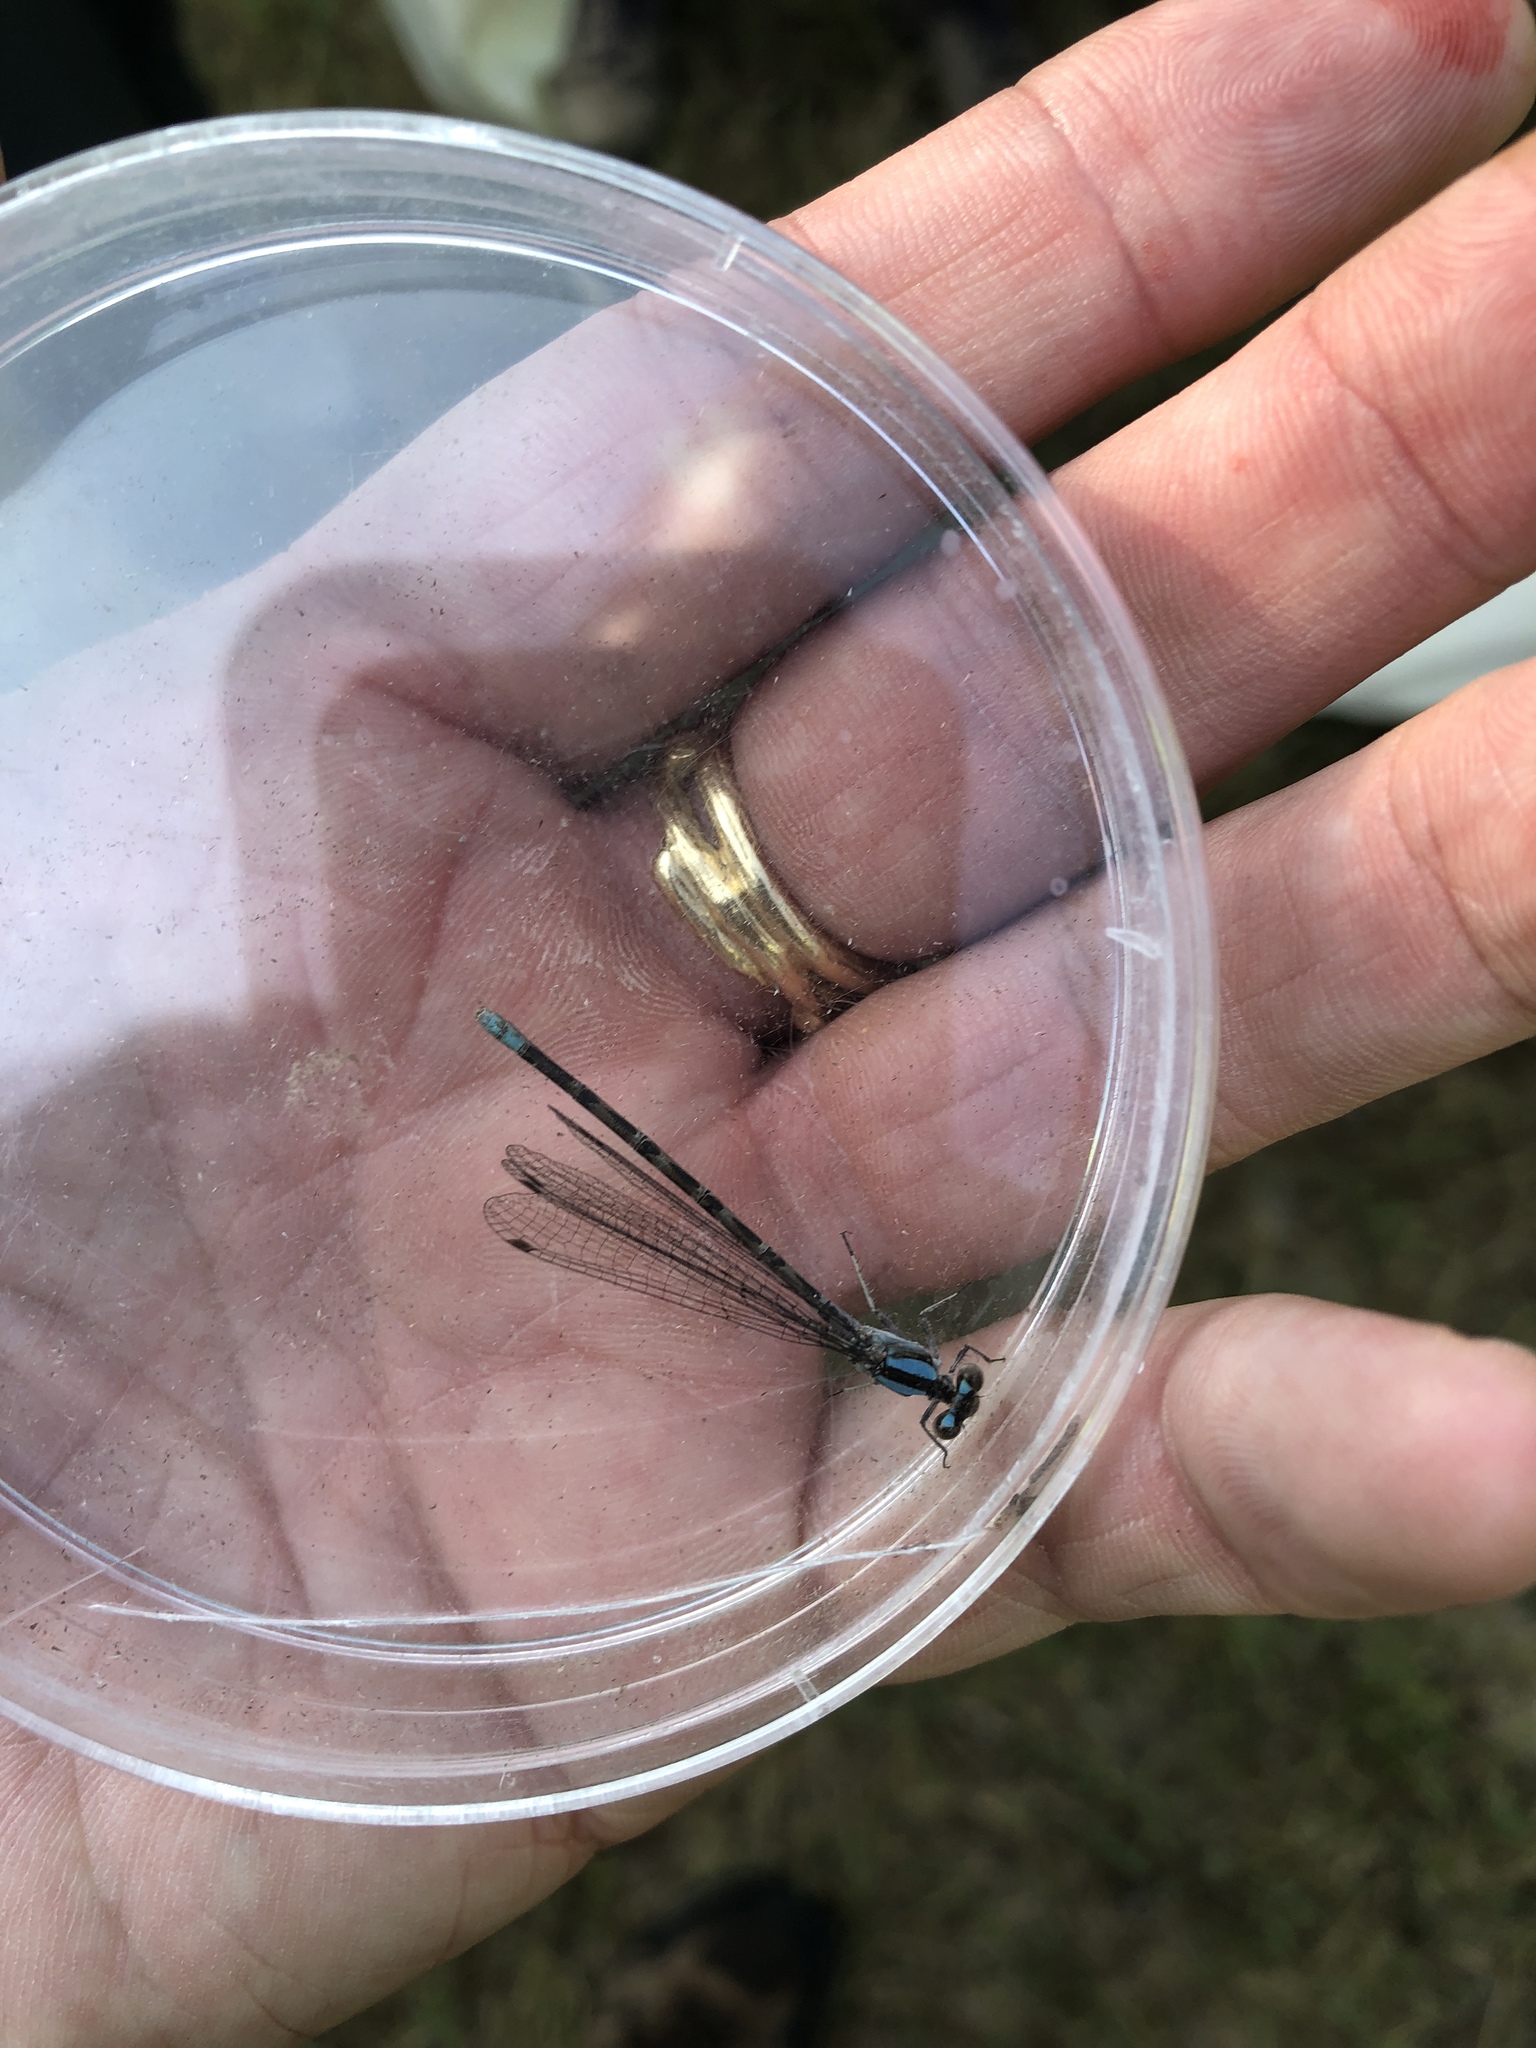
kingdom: Animalia
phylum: Arthropoda
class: Insecta
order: Odonata
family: Coenagrionidae
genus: Argia
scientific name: Argia immunda
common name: Kiowa dancer
